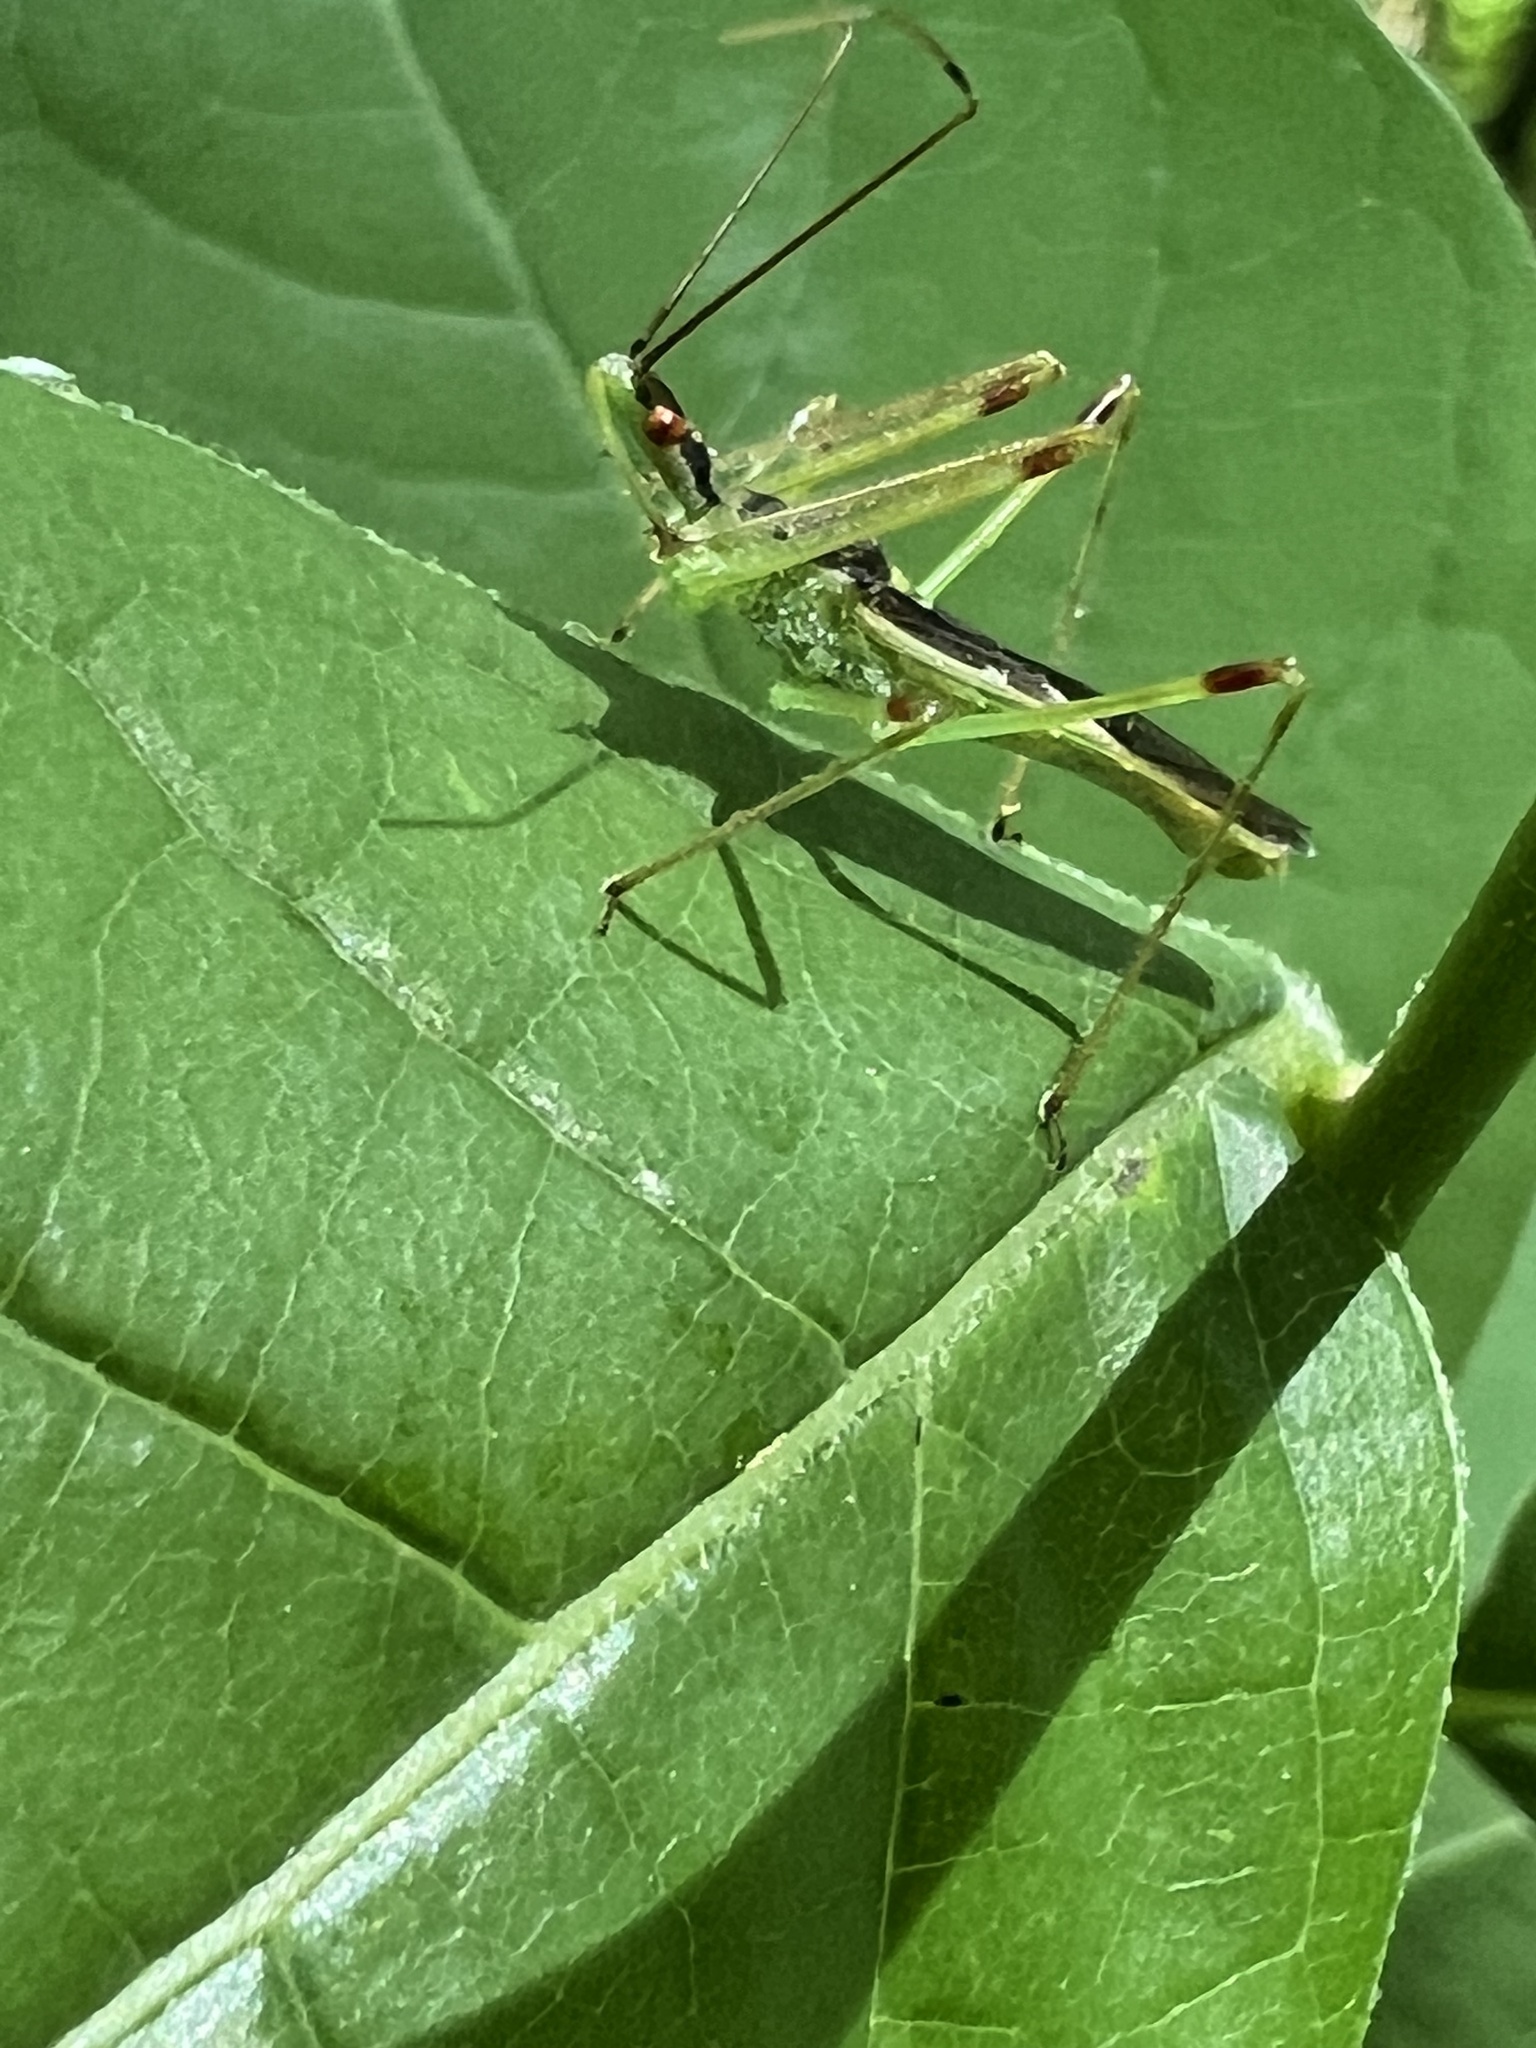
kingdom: Animalia
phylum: Arthropoda
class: Insecta
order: Hemiptera
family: Reduviidae
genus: Zelus
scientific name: Zelus luridus
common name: Pale green assassin bug
